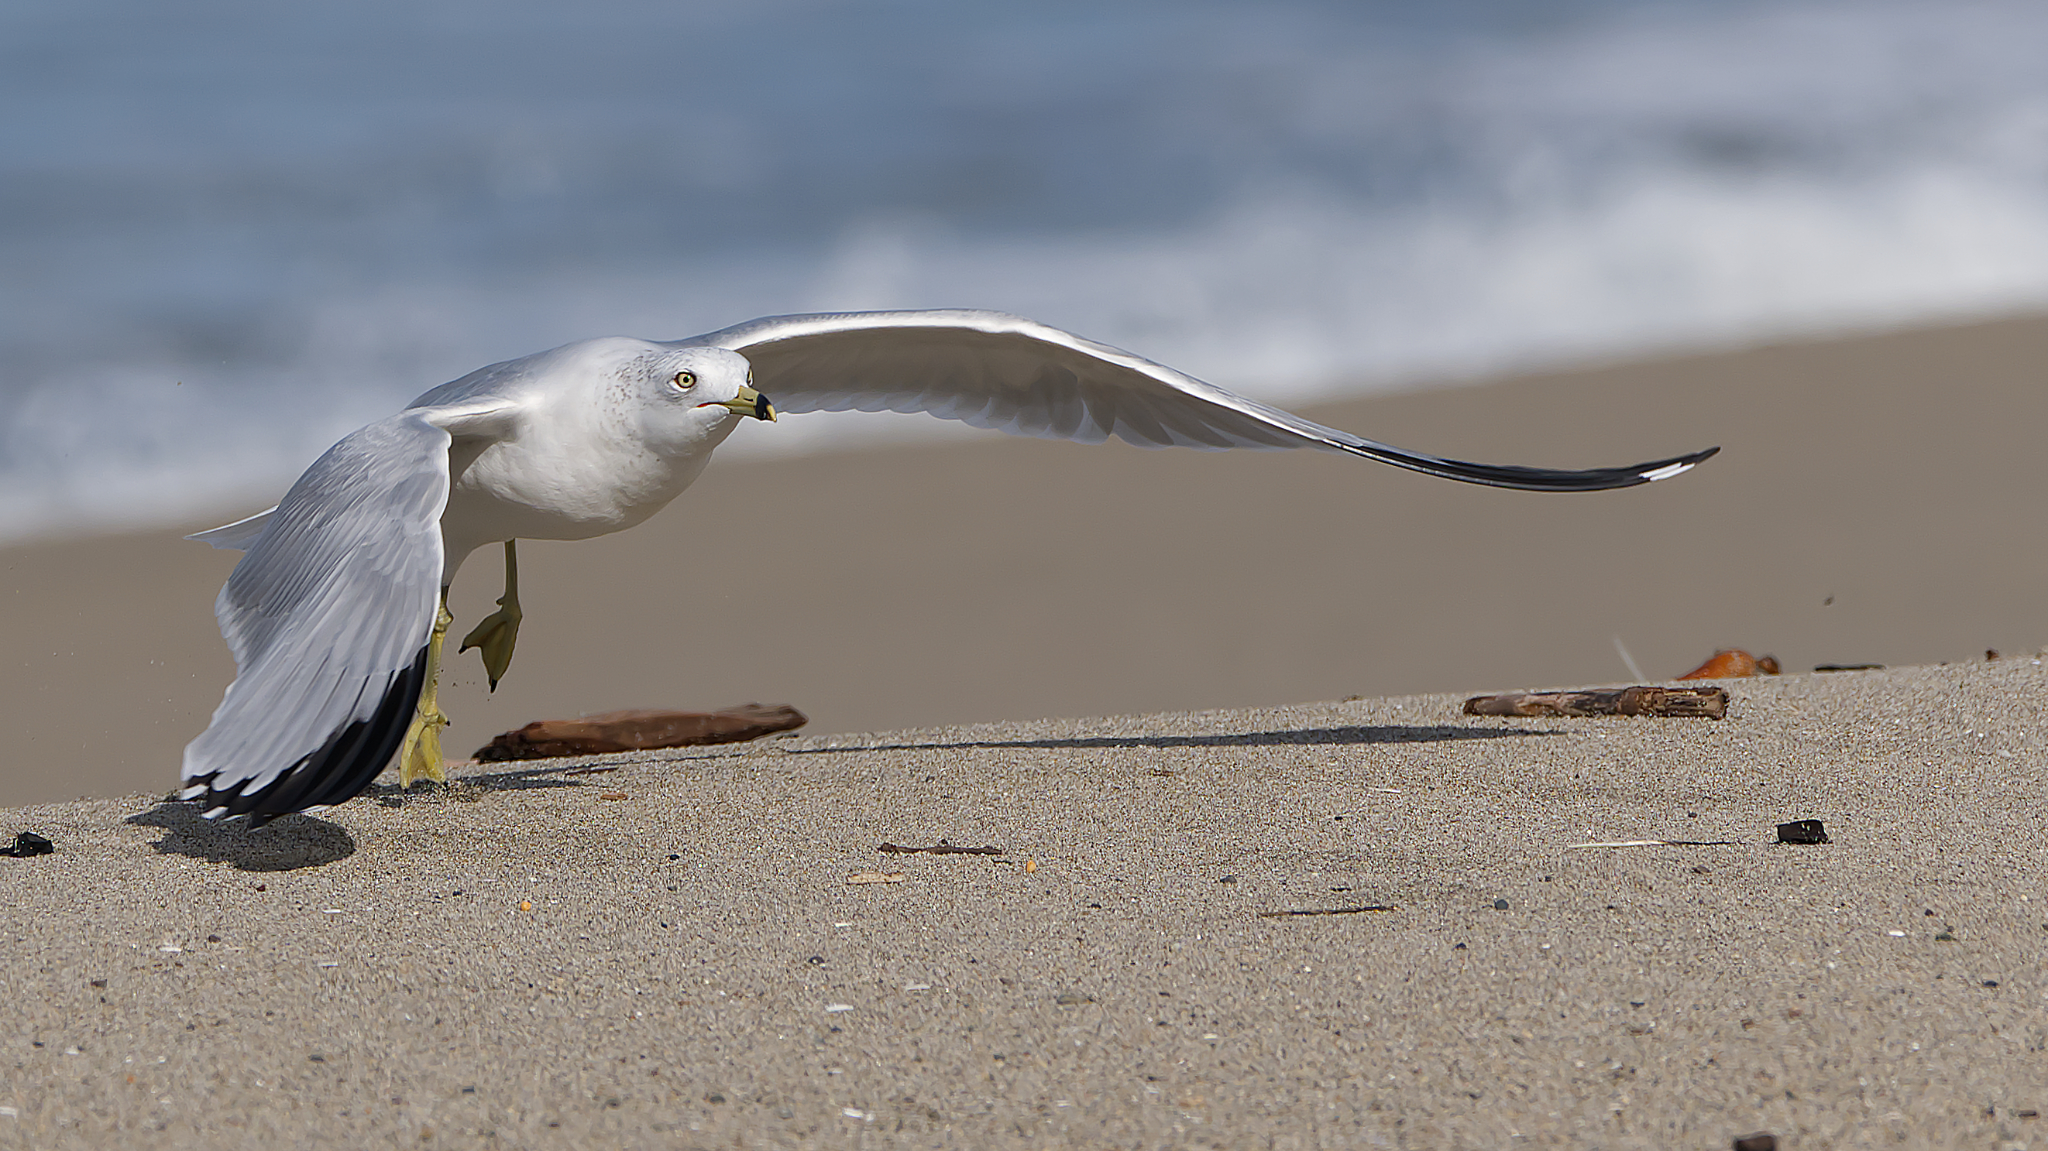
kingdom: Animalia
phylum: Chordata
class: Aves
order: Charadriiformes
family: Laridae
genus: Larus
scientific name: Larus delawarensis
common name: Ring-billed gull
